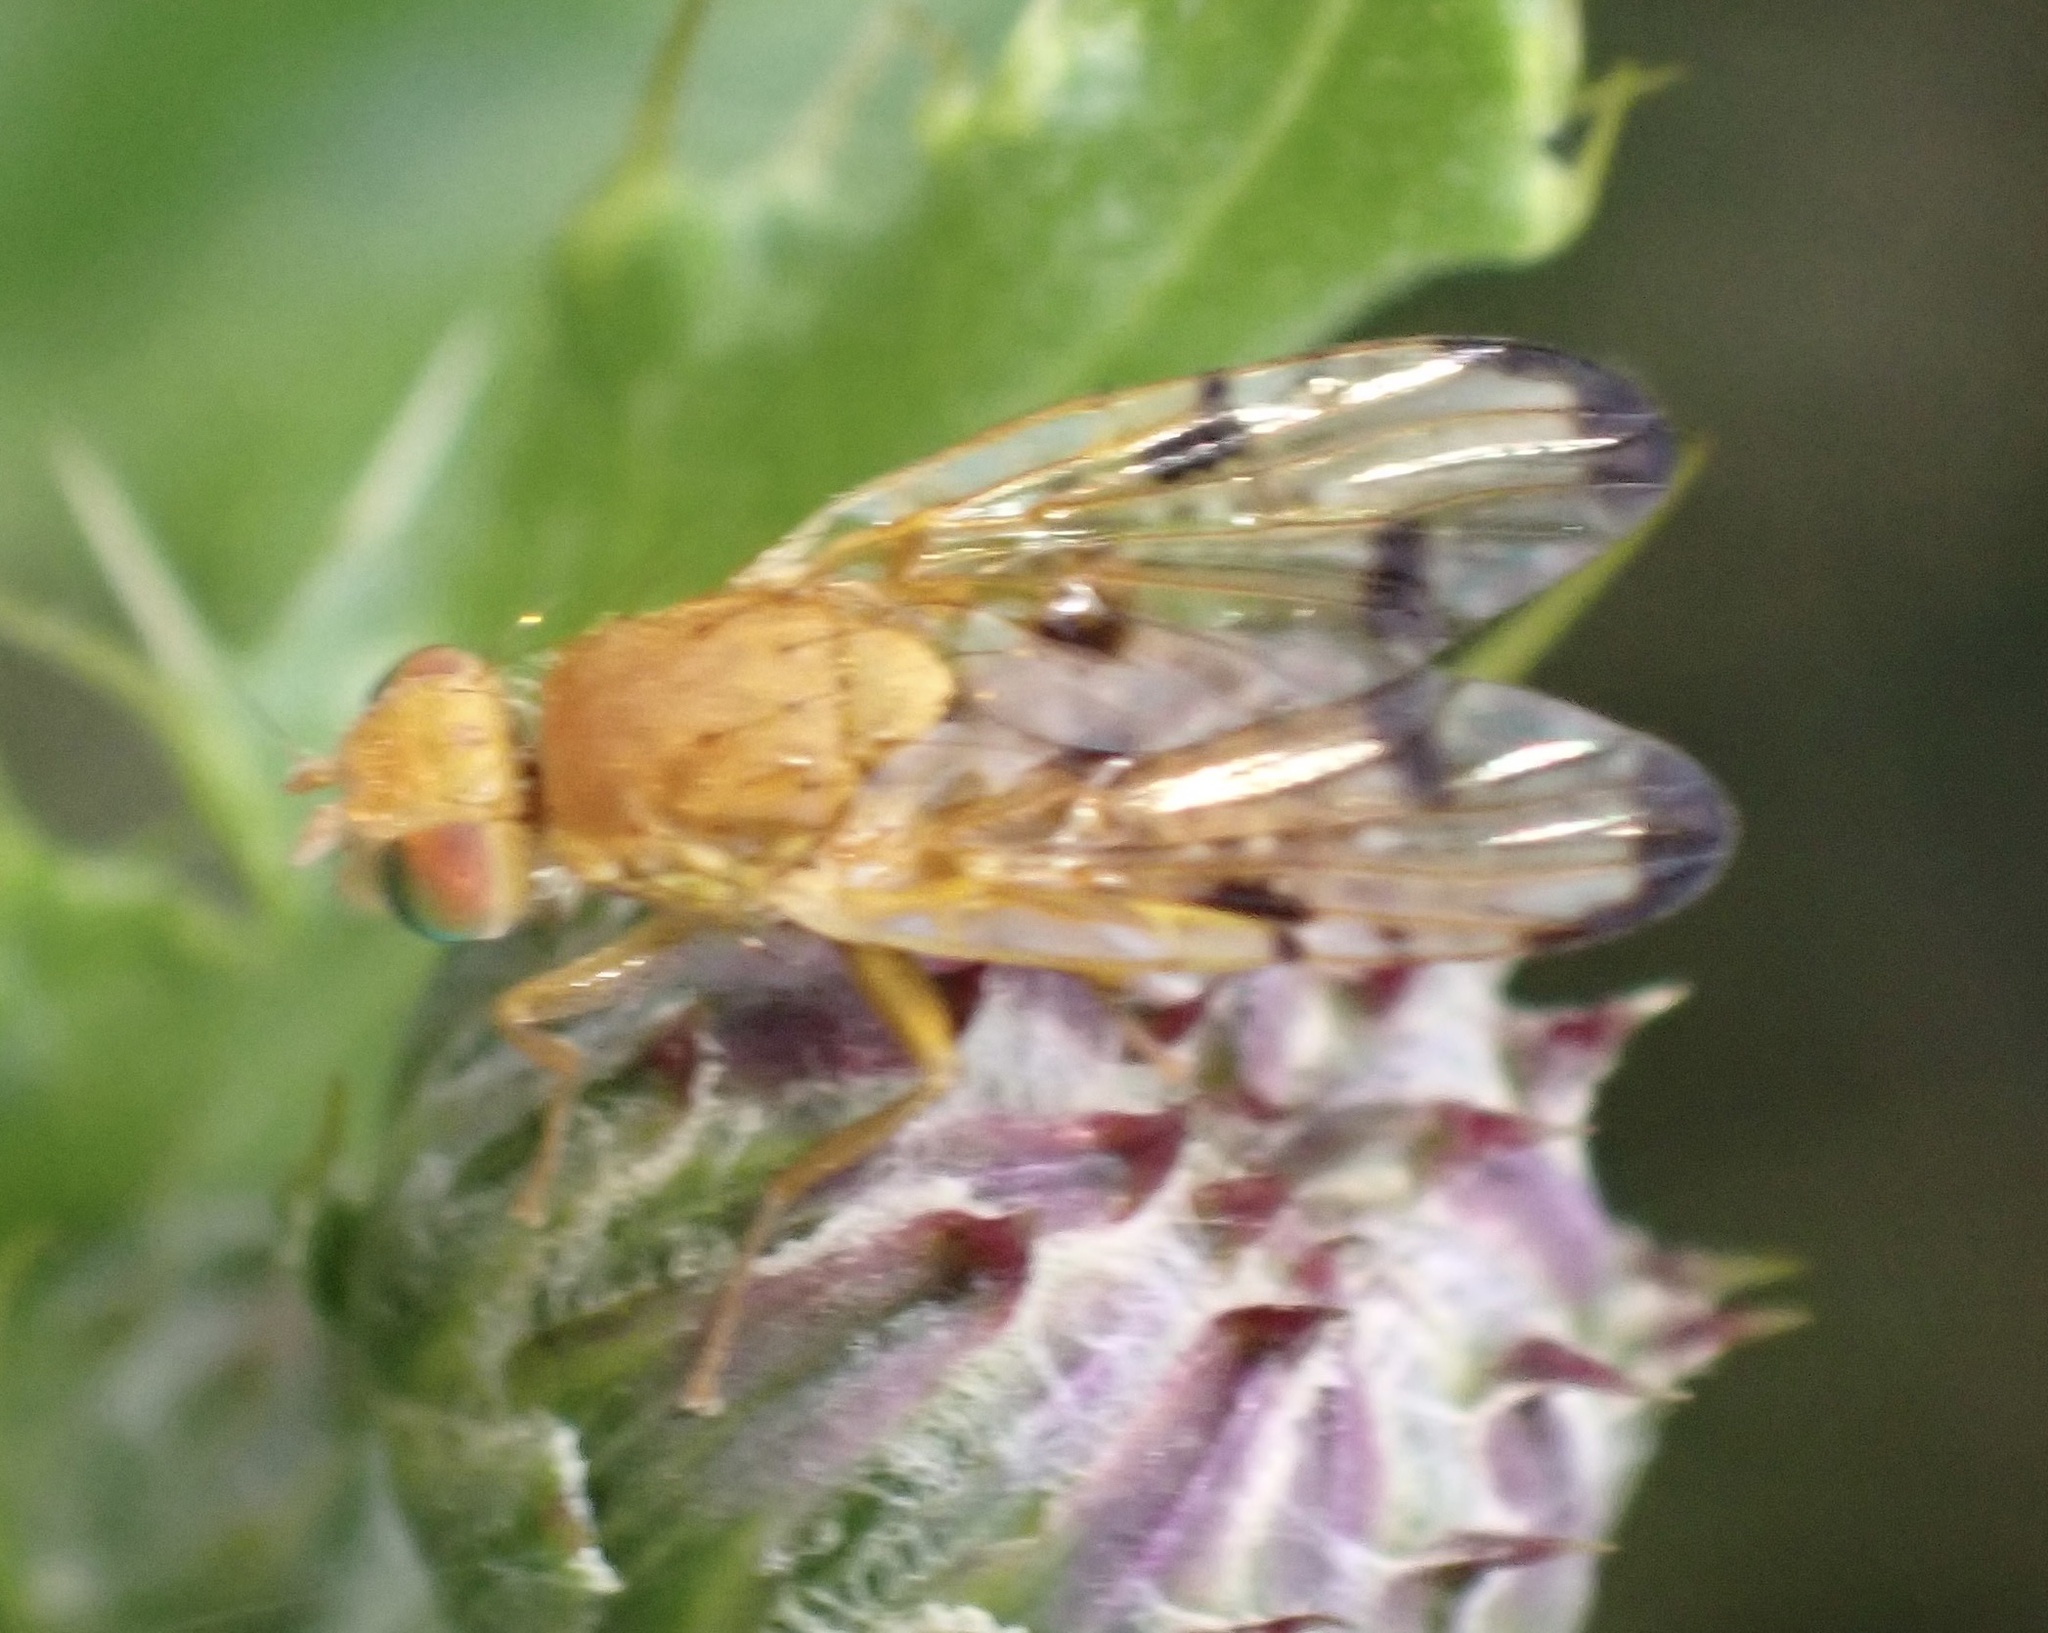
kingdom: Animalia
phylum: Arthropoda
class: Insecta
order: Diptera
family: Tephritidae
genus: Xyphosia
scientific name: Xyphosia miliaria
